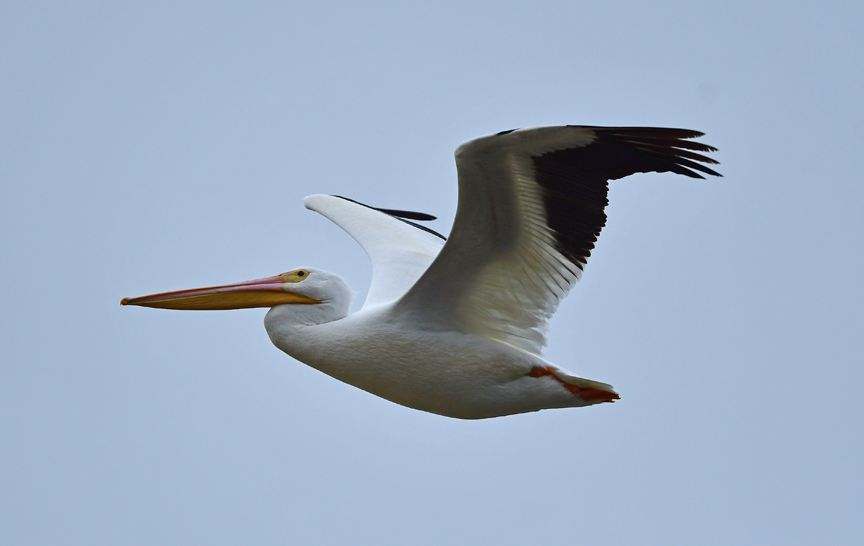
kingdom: Animalia
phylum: Chordata
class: Aves
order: Pelecaniformes
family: Pelecanidae
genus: Pelecanus
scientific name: Pelecanus erythrorhynchos
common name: American white pelican
